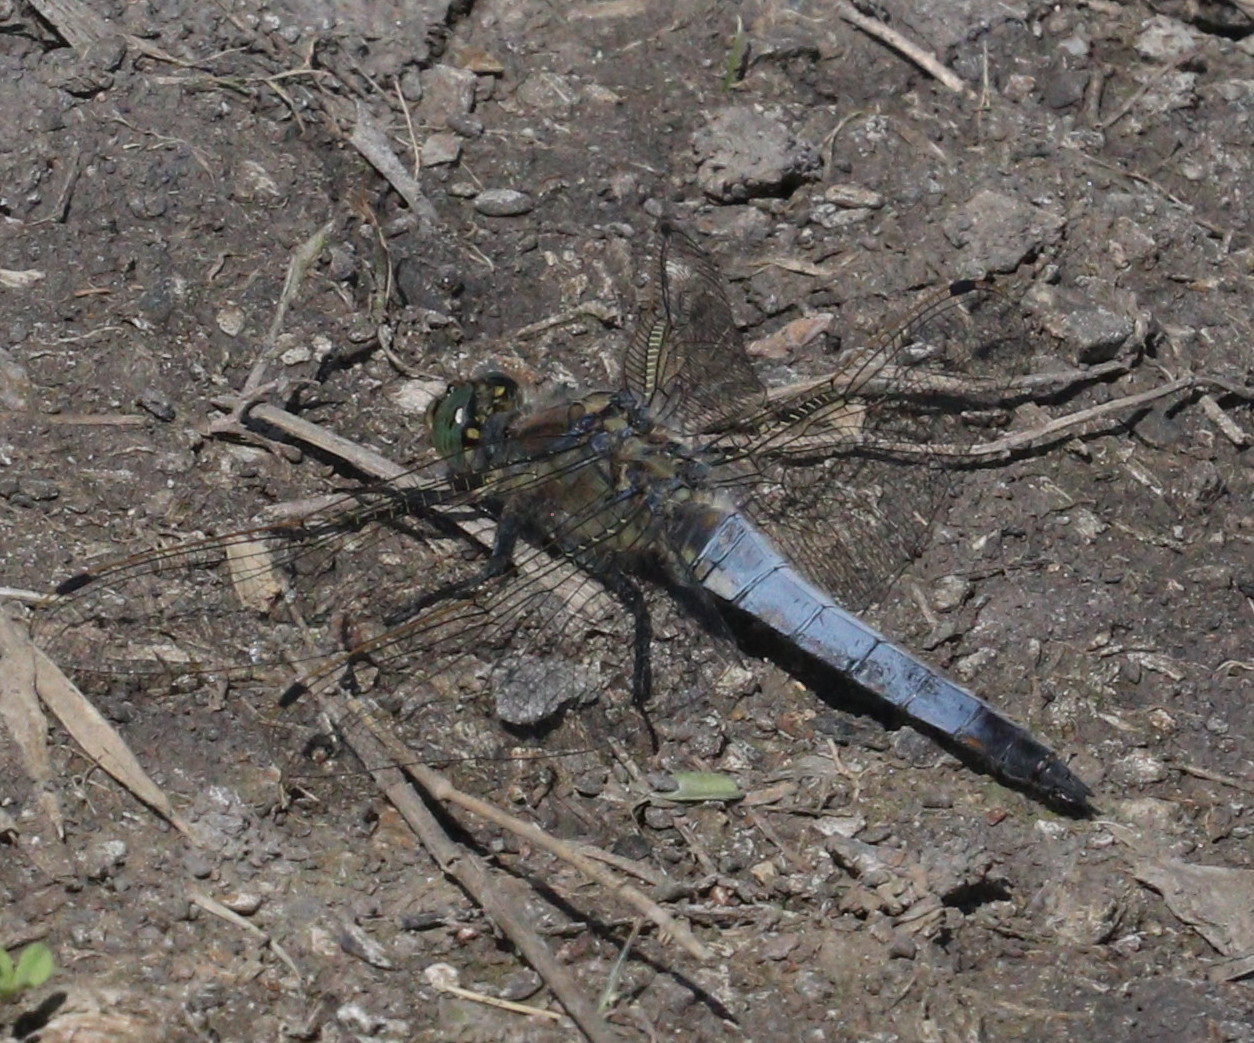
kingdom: Animalia
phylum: Arthropoda
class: Insecta
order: Odonata
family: Libellulidae
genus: Orthetrum
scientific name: Orthetrum cancellatum
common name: Black-tailed skimmer
